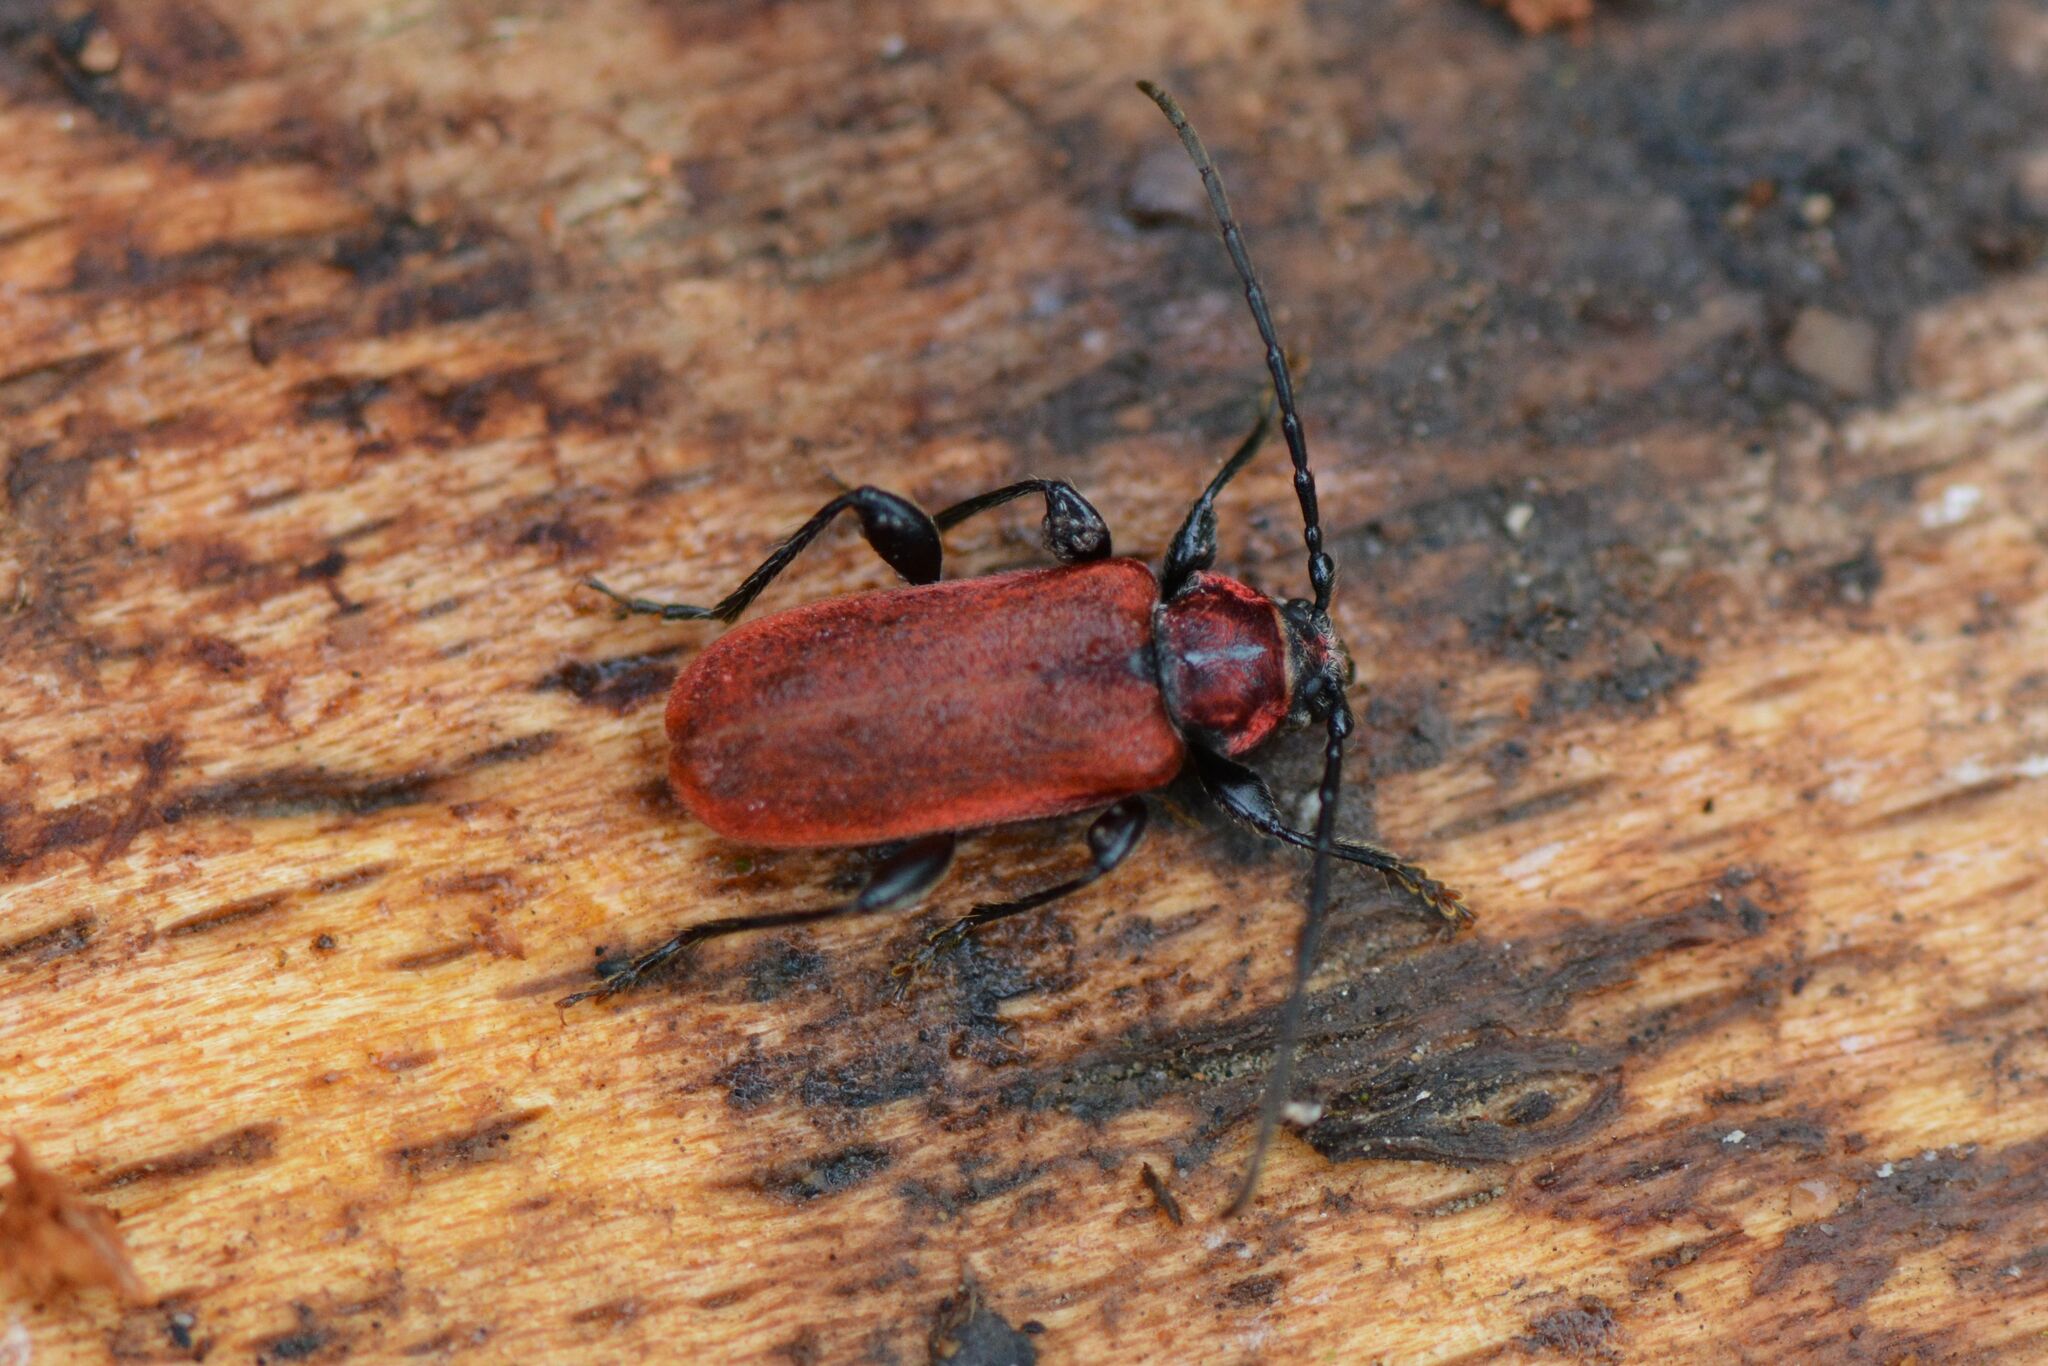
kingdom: Animalia
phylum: Arthropoda
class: Insecta
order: Coleoptera
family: Cerambycidae
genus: Pyrrhidium
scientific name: Pyrrhidium sanguineum
